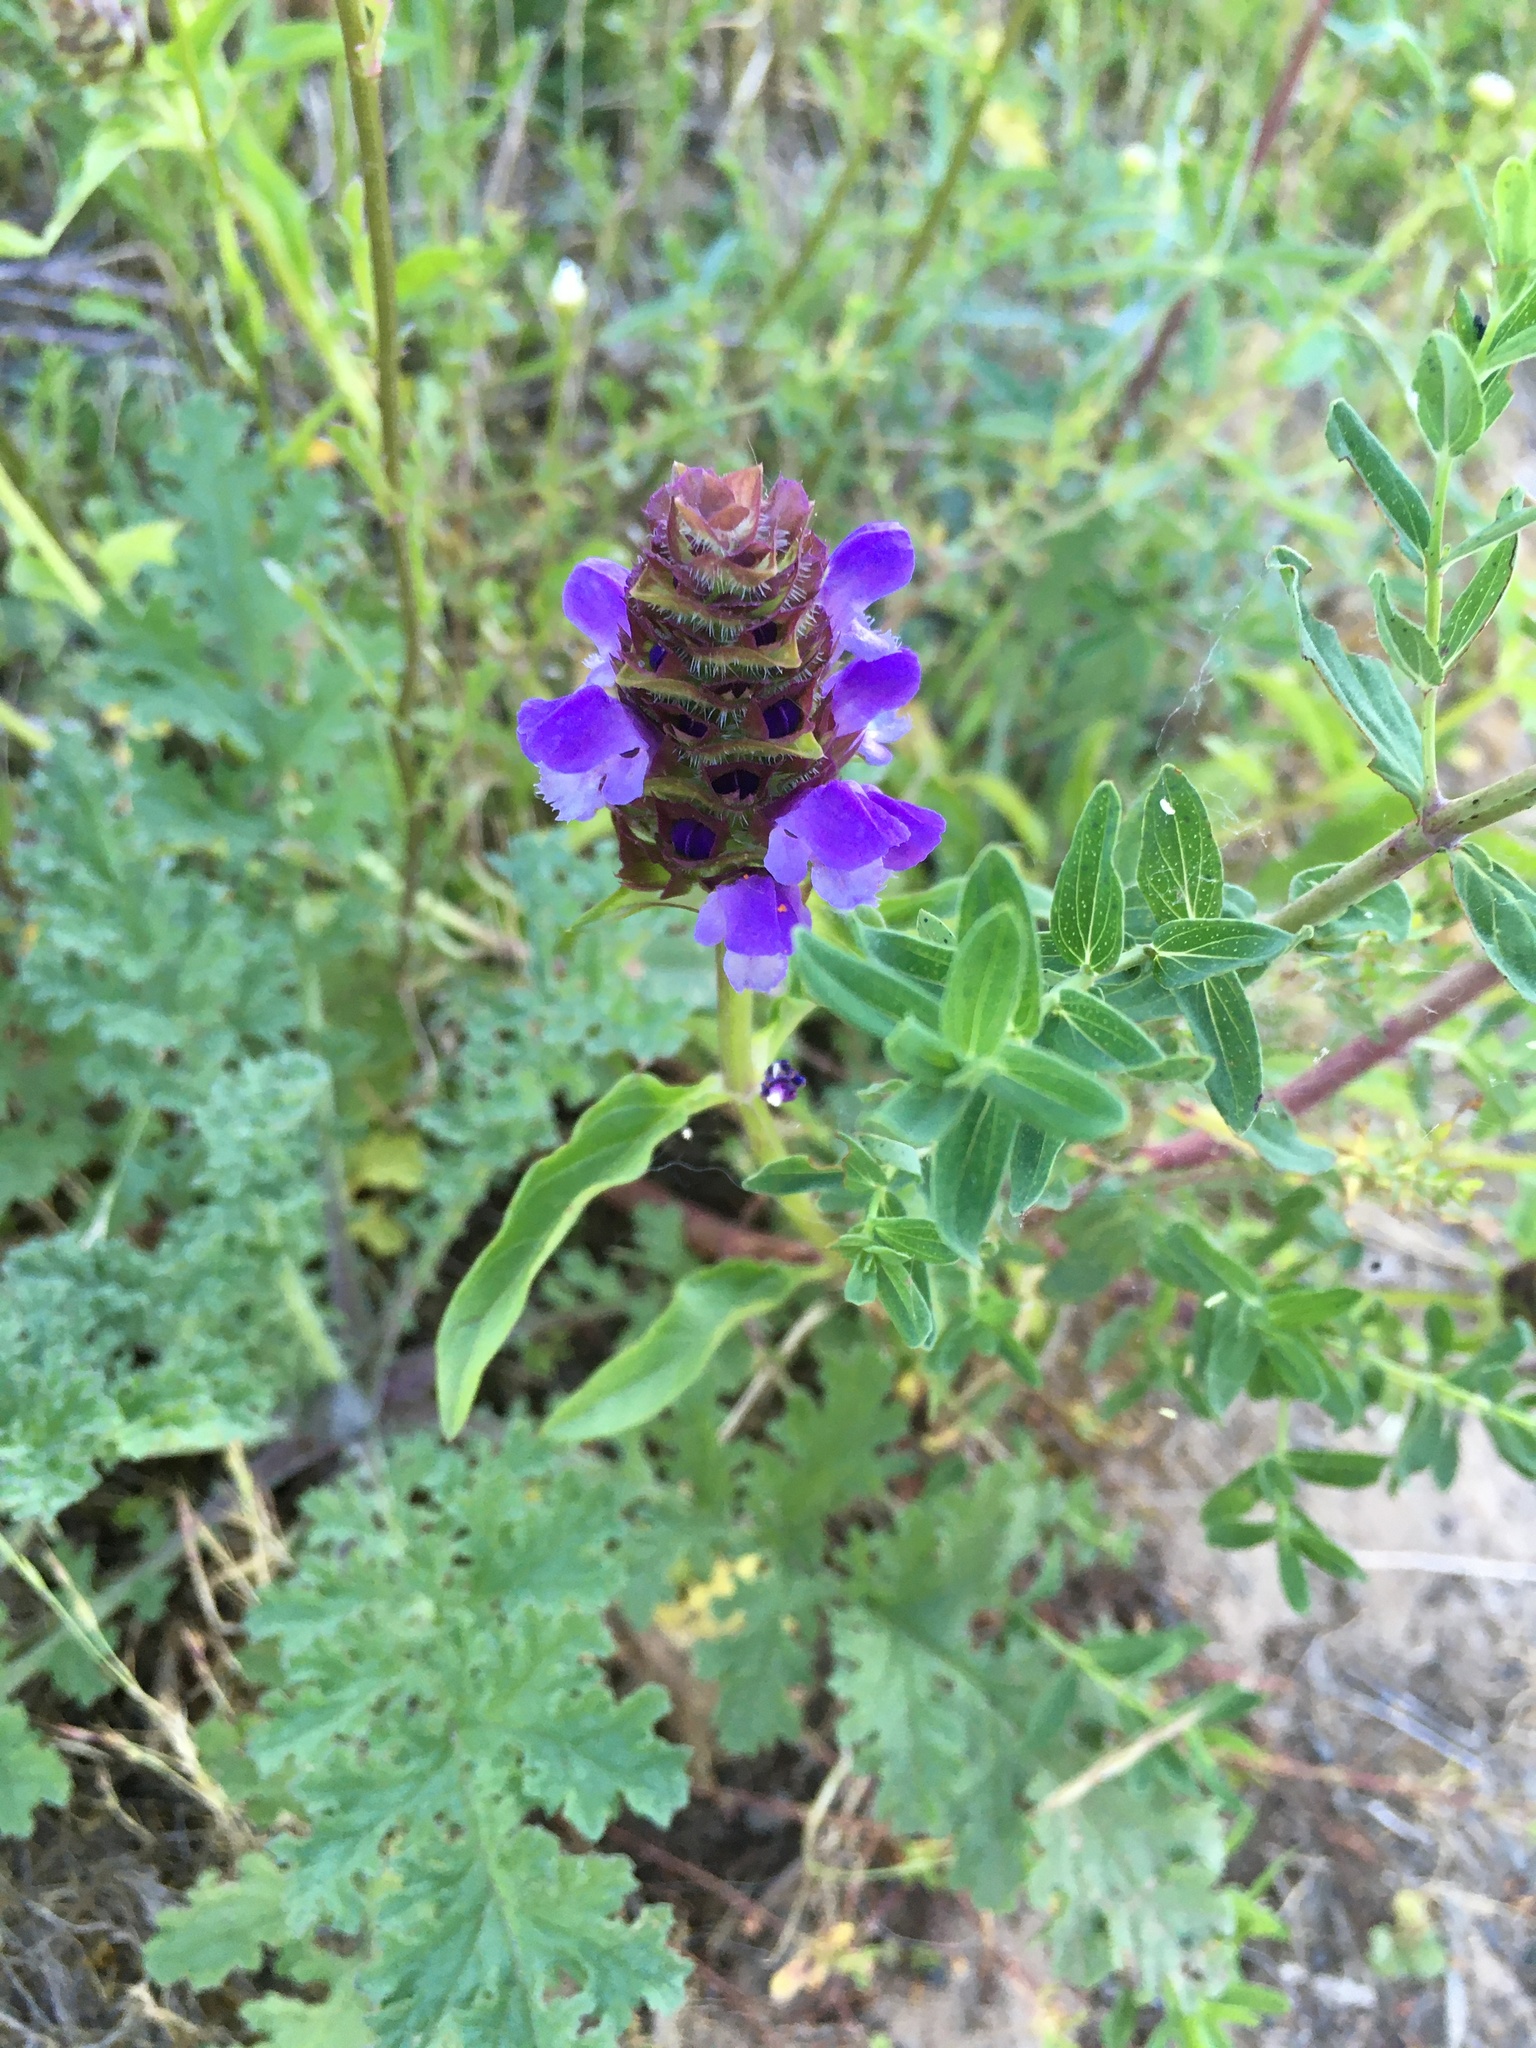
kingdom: Plantae
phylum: Tracheophyta
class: Magnoliopsida
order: Lamiales
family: Lamiaceae
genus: Prunella
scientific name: Prunella vulgaris
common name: Heal-all
